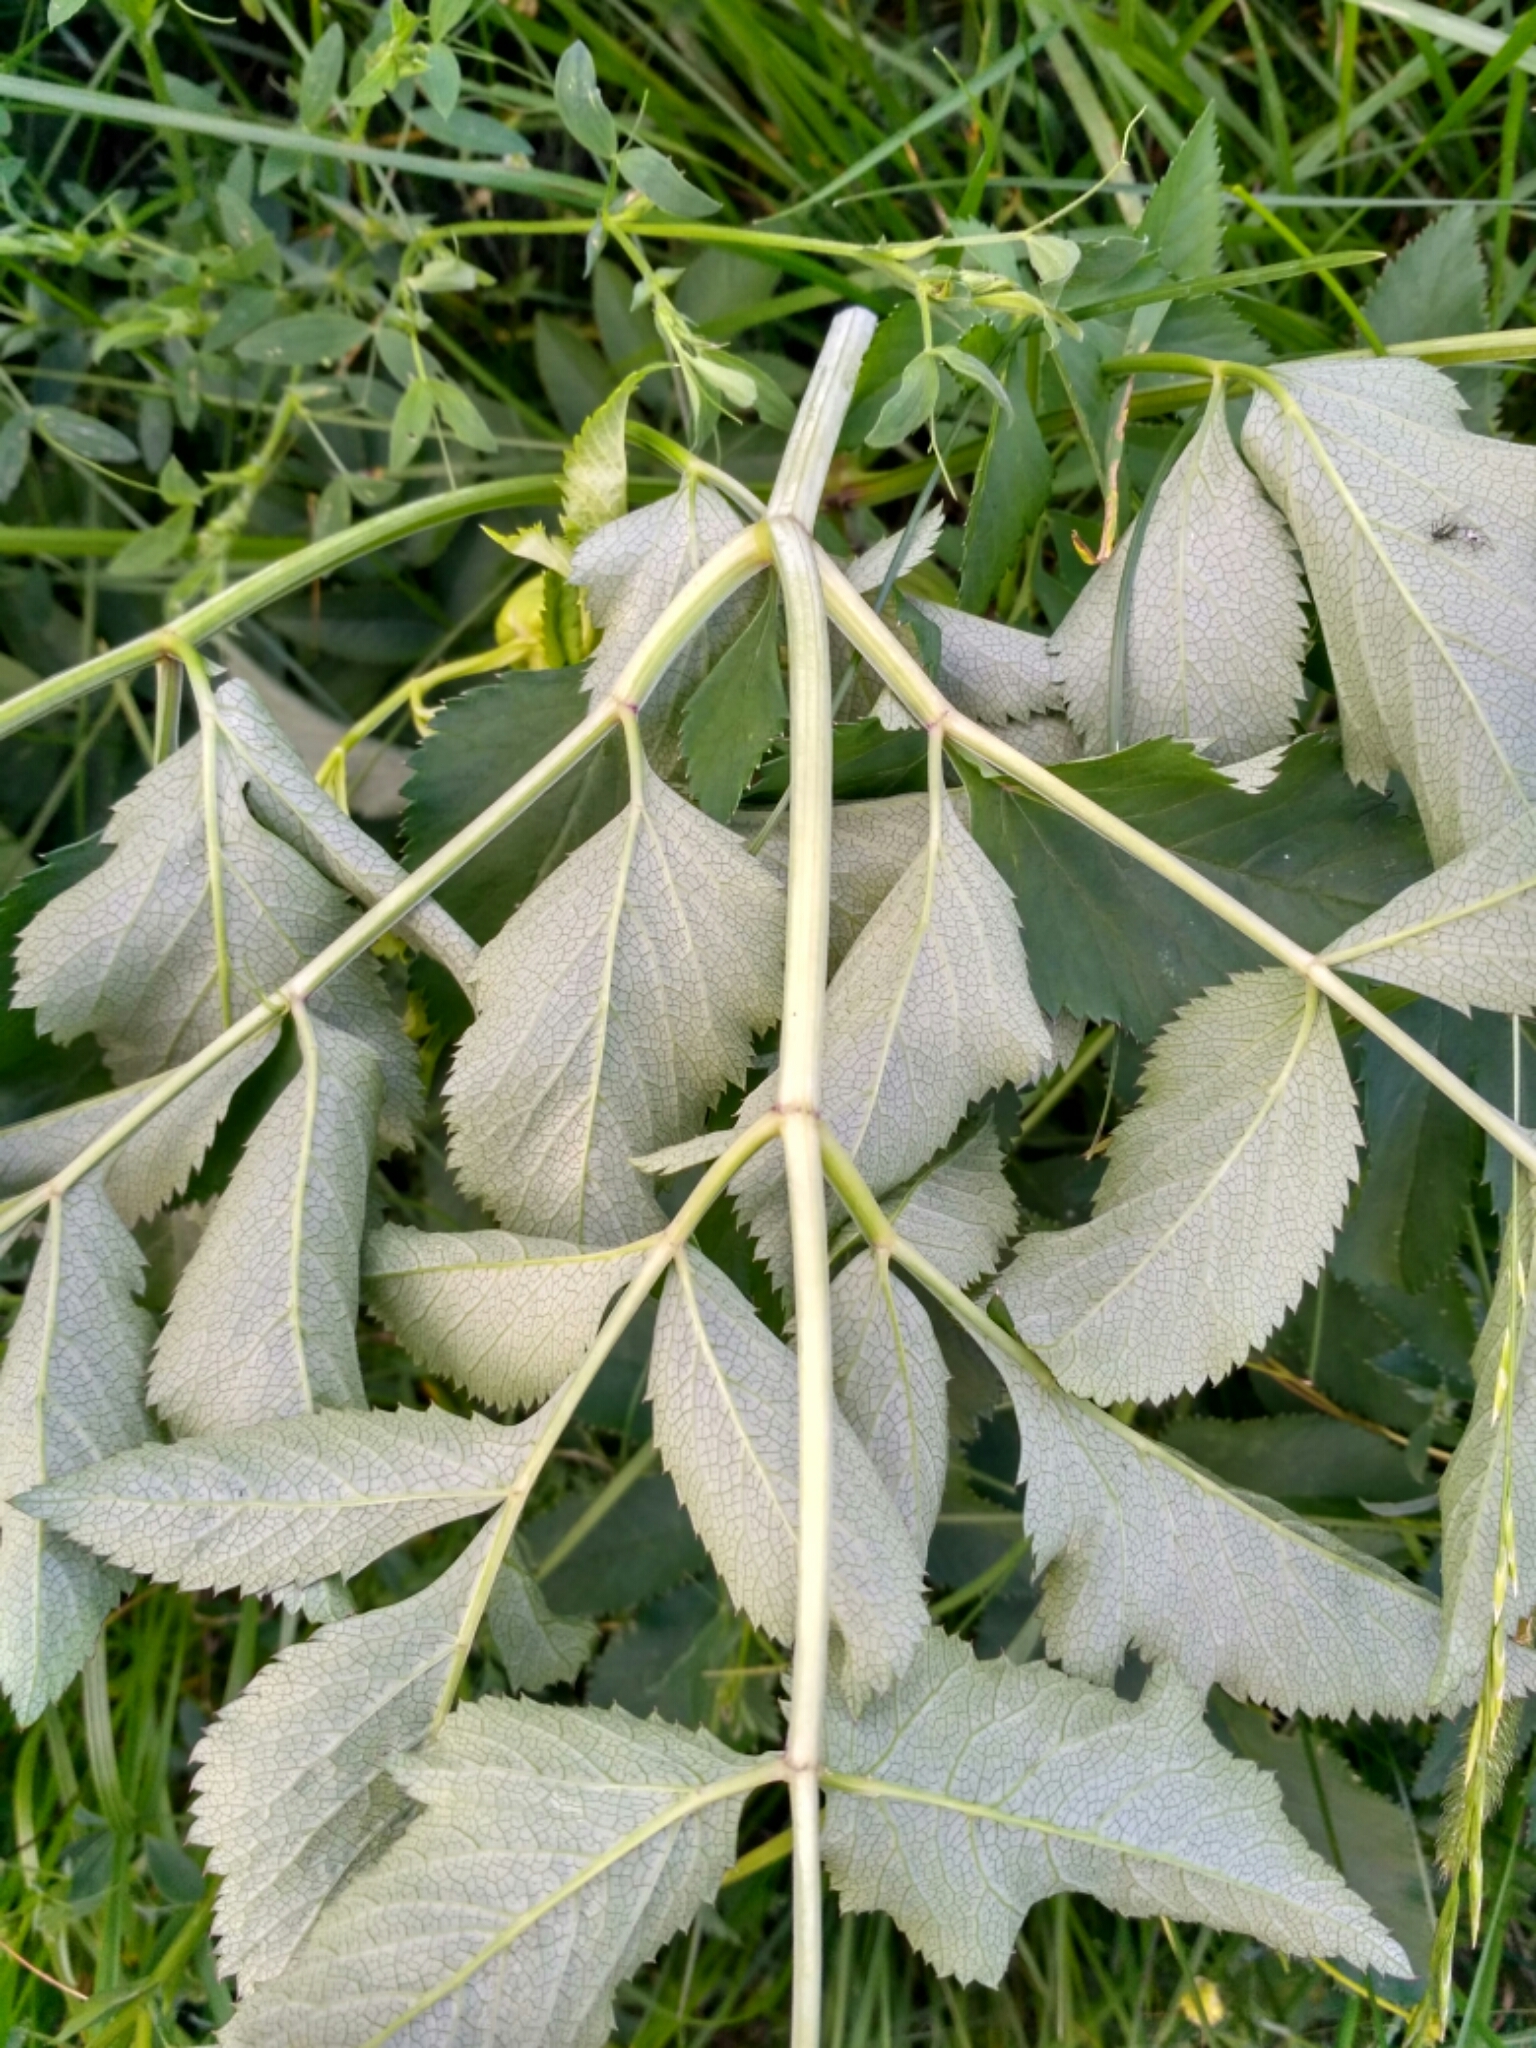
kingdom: Plantae
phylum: Tracheophyta
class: Magnoliopsida
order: Apiales
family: Apiaceae
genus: Angelica
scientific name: Angelica sylvestris
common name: Wild angelica
